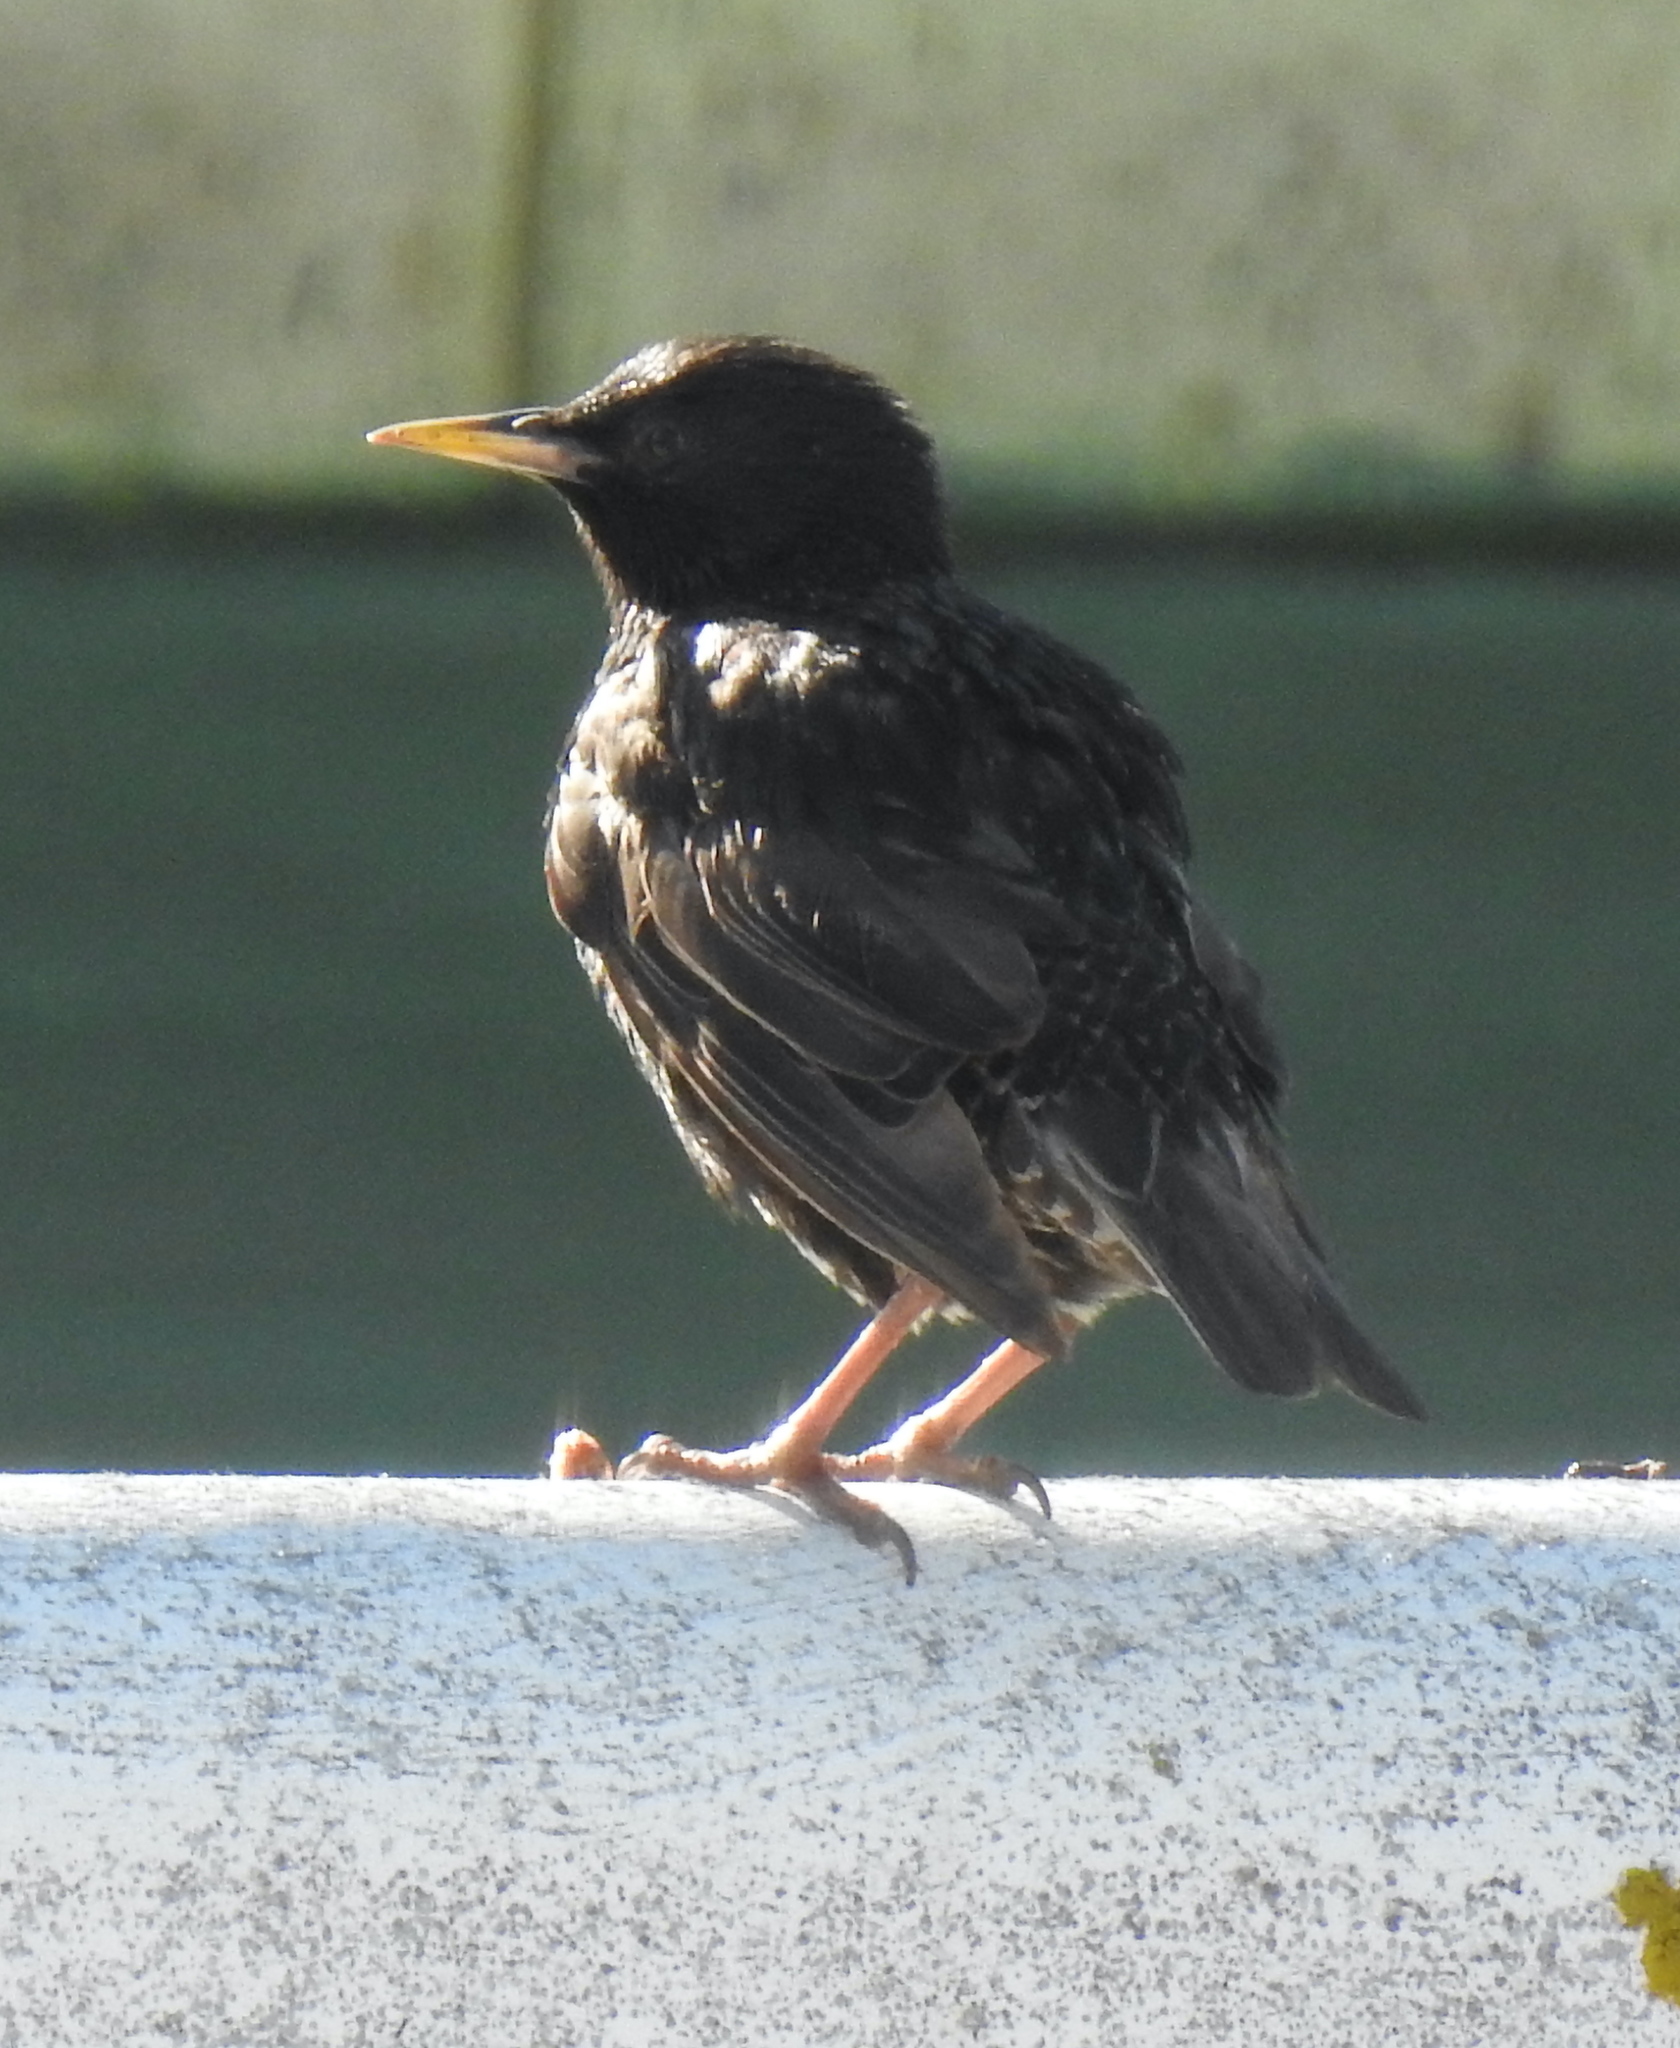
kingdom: Animalia
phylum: Chordata
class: Aves
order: Passeriformes
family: Sturnidae
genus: Sturnus
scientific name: Sturnus vulgaris
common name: Common starling
